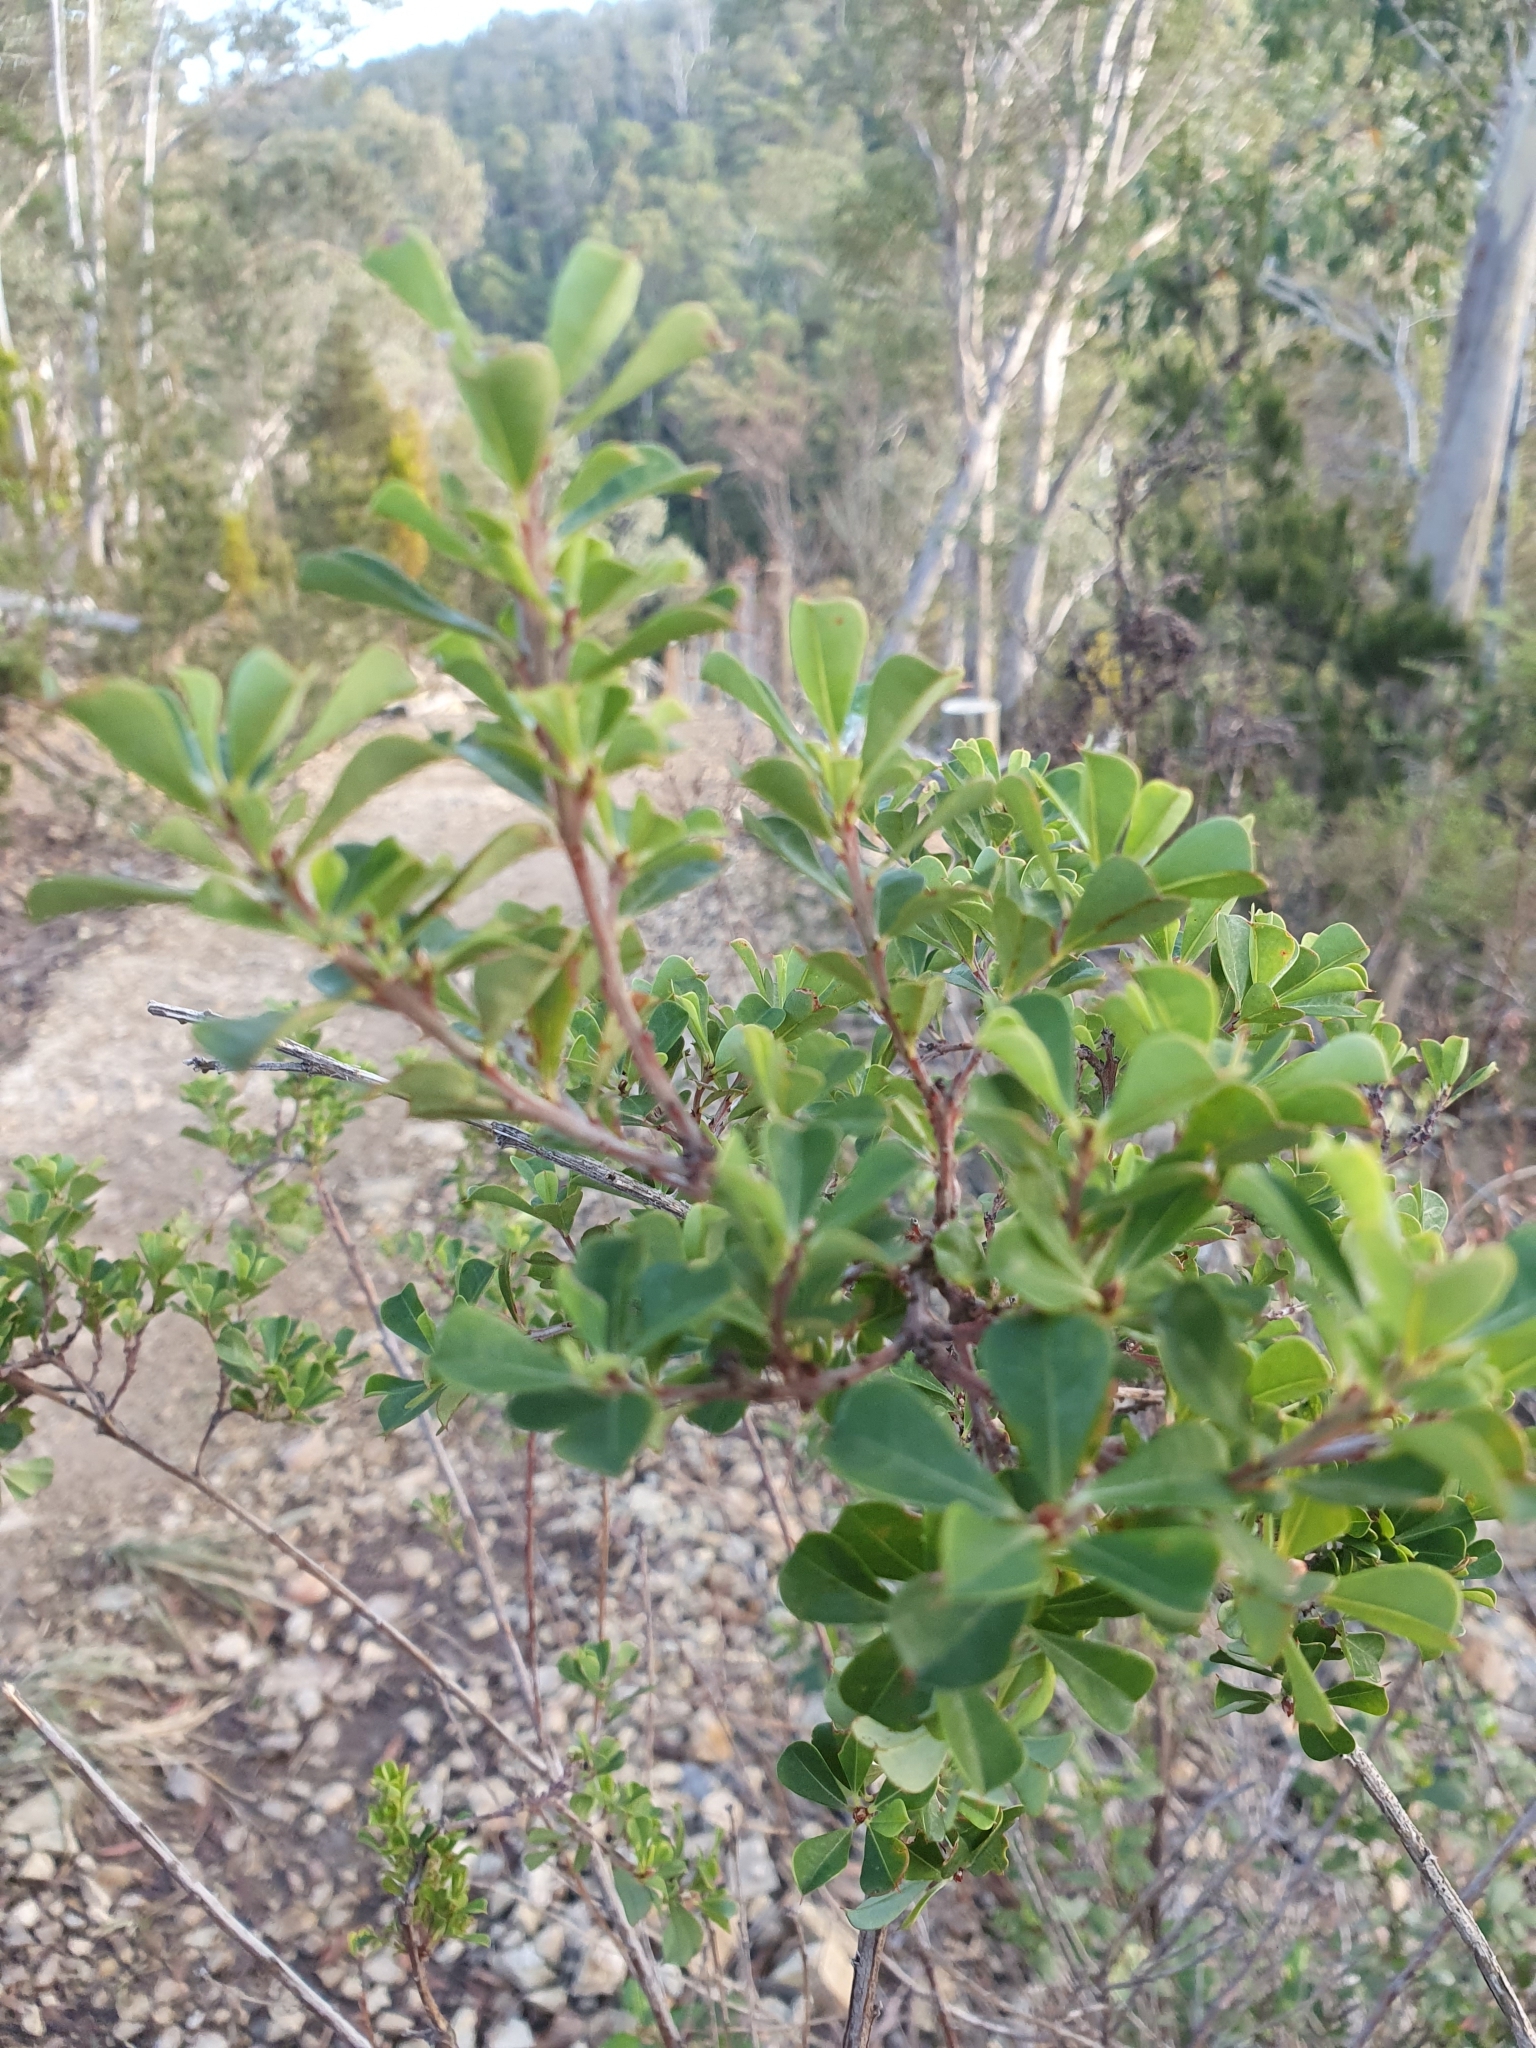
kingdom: Plantae
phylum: Tracheophyta
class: Magnoliopsida
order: Fabales
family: Fabaceae
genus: Pultenaea
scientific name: Pultenaea daphnoides
